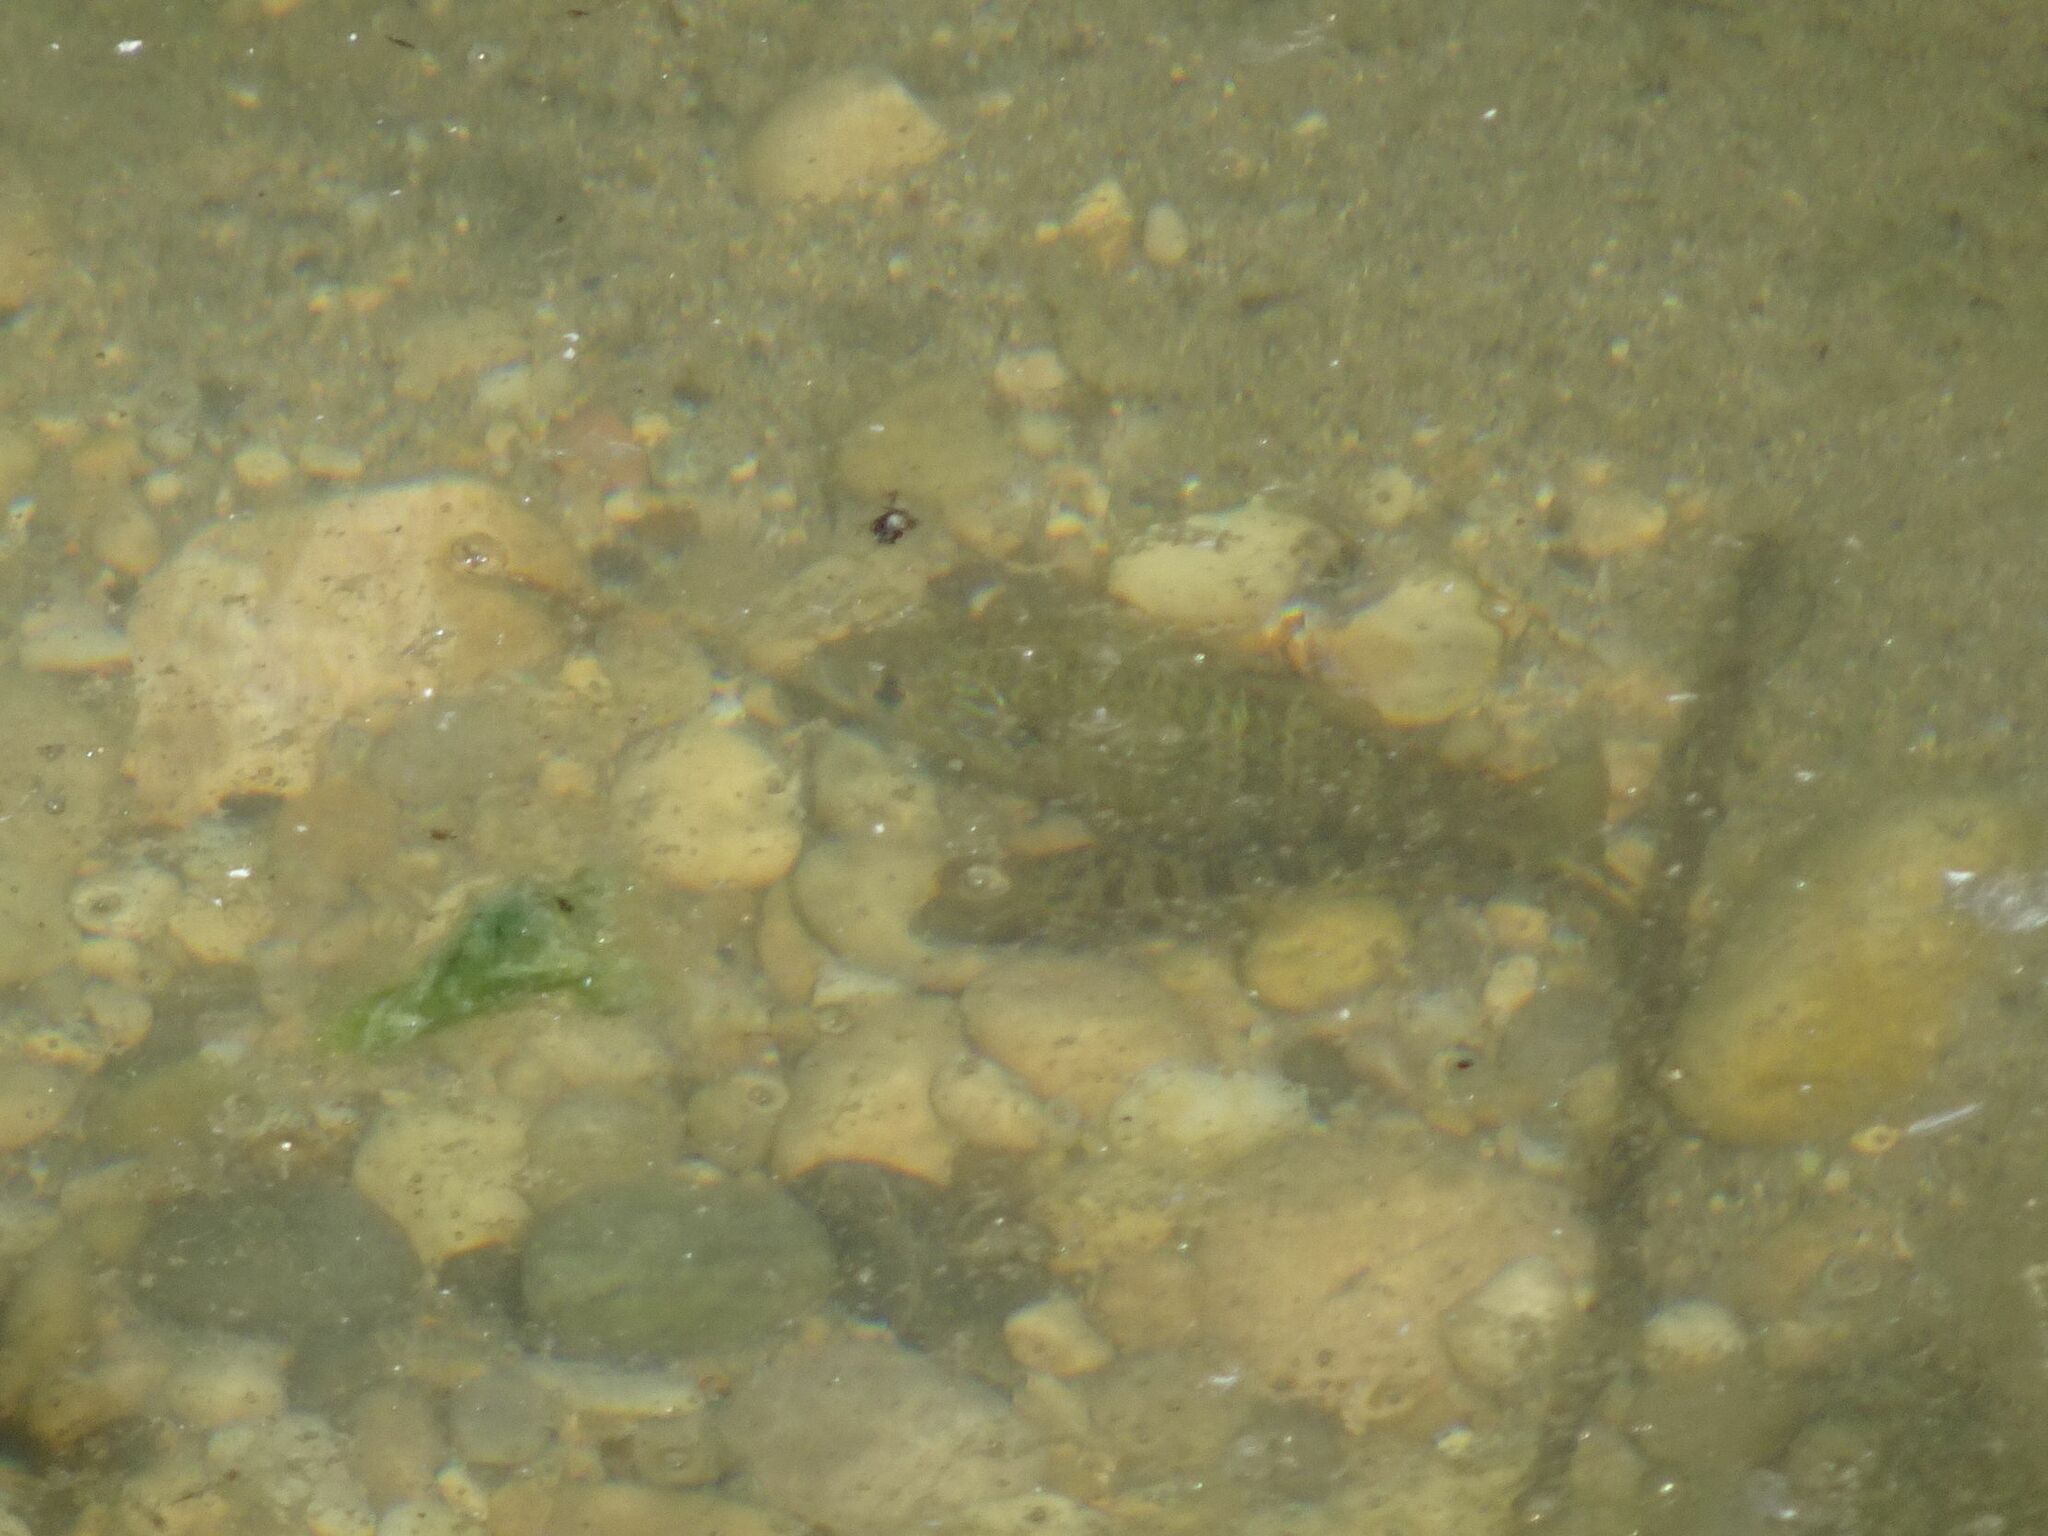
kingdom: Animalia
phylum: Chordata
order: Perciformes
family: Centrarchidae
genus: Lepomis
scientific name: Lepomis gibbosus
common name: Pumpkinseed
